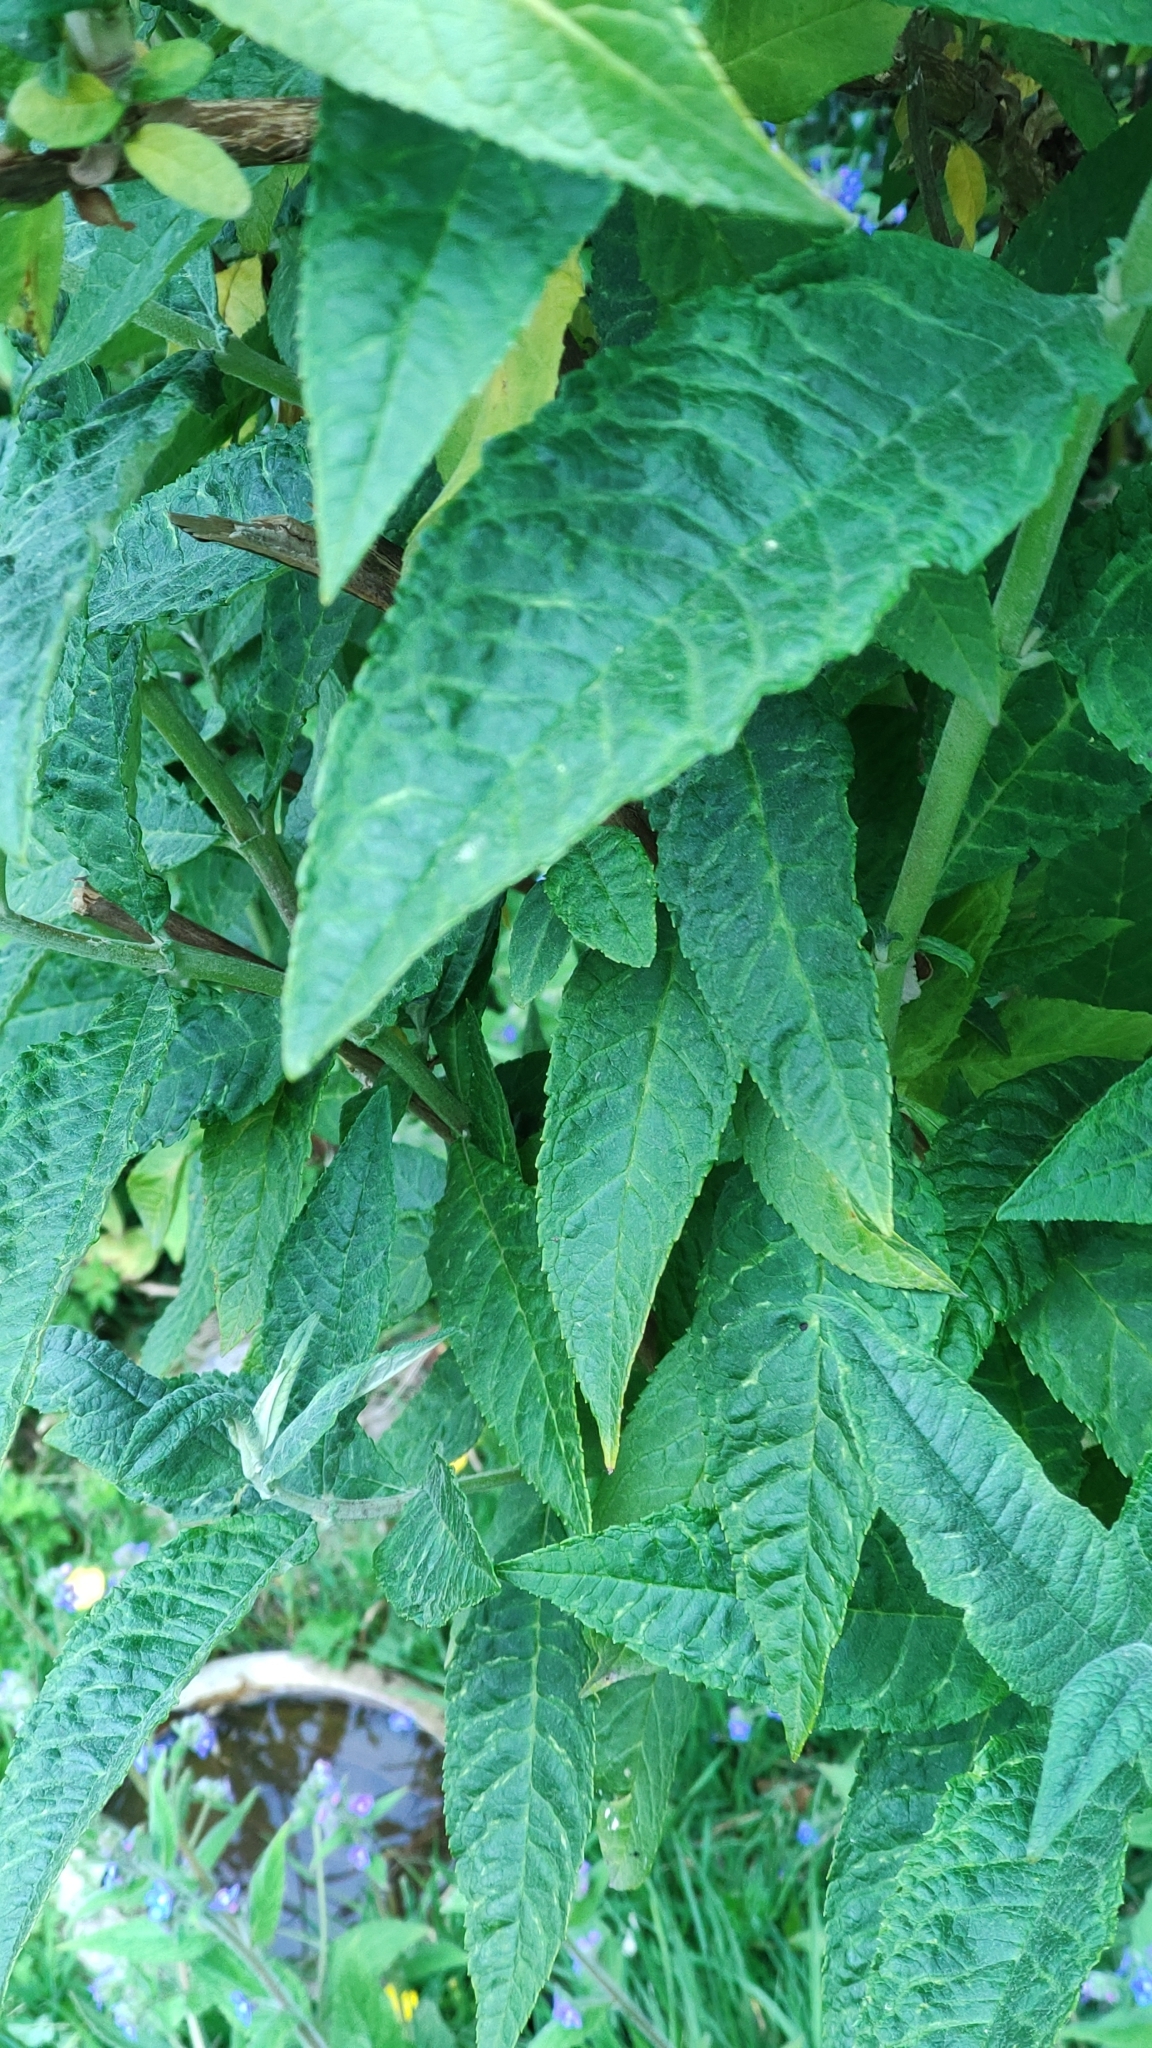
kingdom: Plantae
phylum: Tracheophyta
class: Magnoliopsida
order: Lamiales
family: Scrophulariaceae
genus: Buddleja
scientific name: Buddleja davidii
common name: Butterfly-bush
